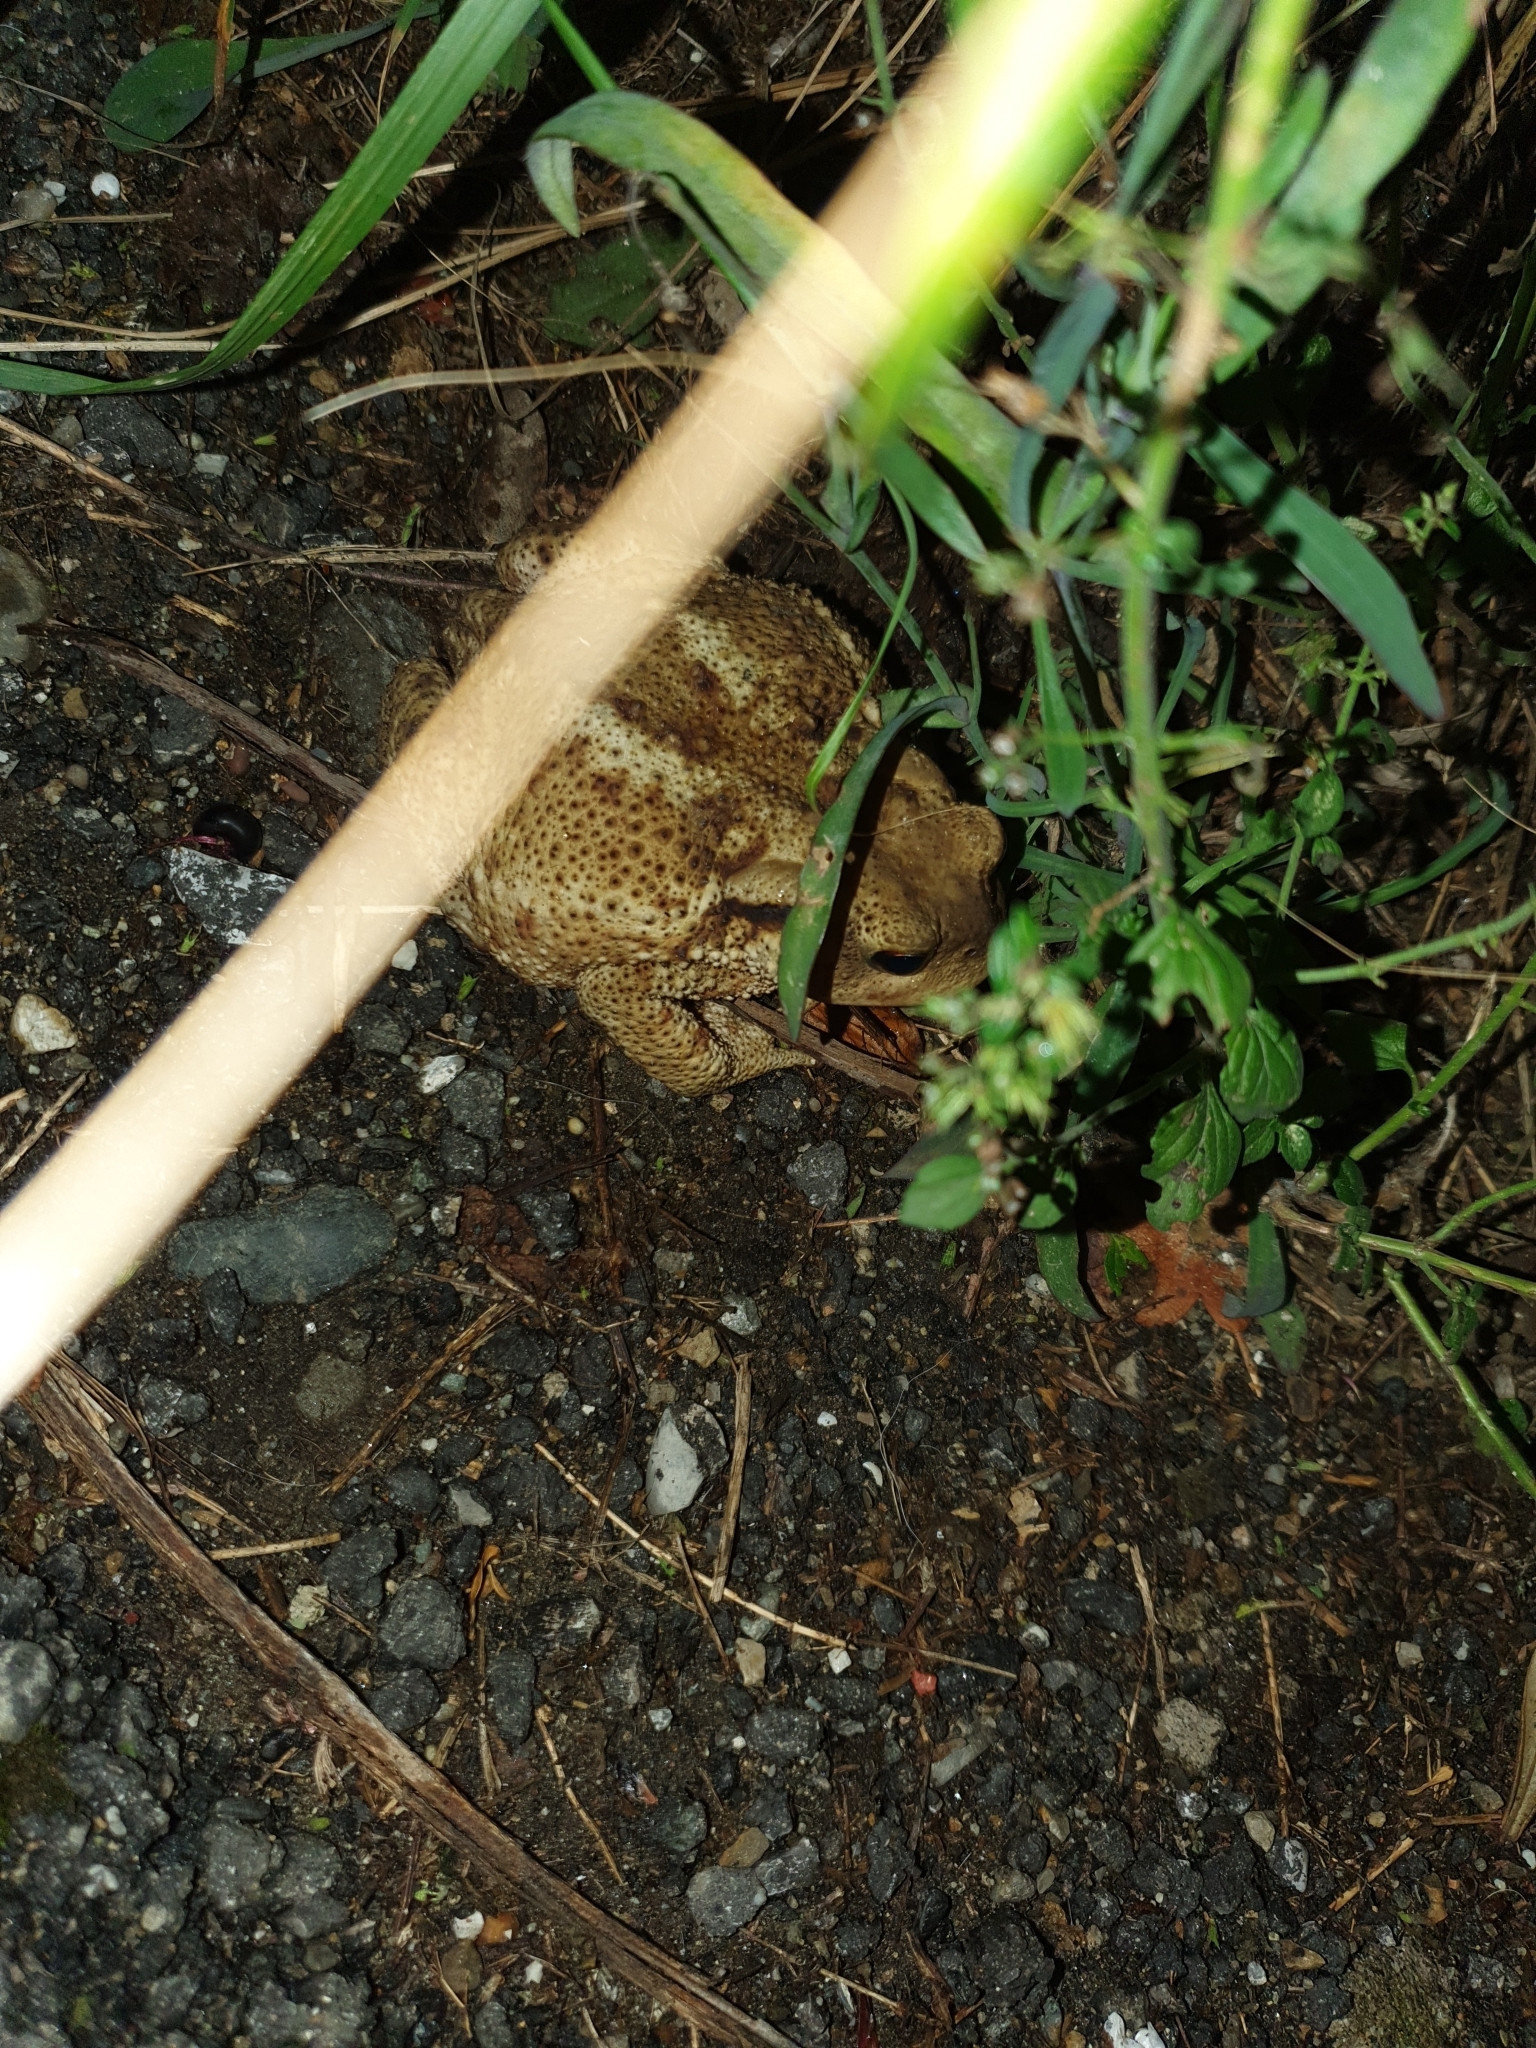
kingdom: Animalia
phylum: Chordata
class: Amphibia
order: Anura
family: Bufonidae
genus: Bufo
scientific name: Bufo bufo
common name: Common toad
